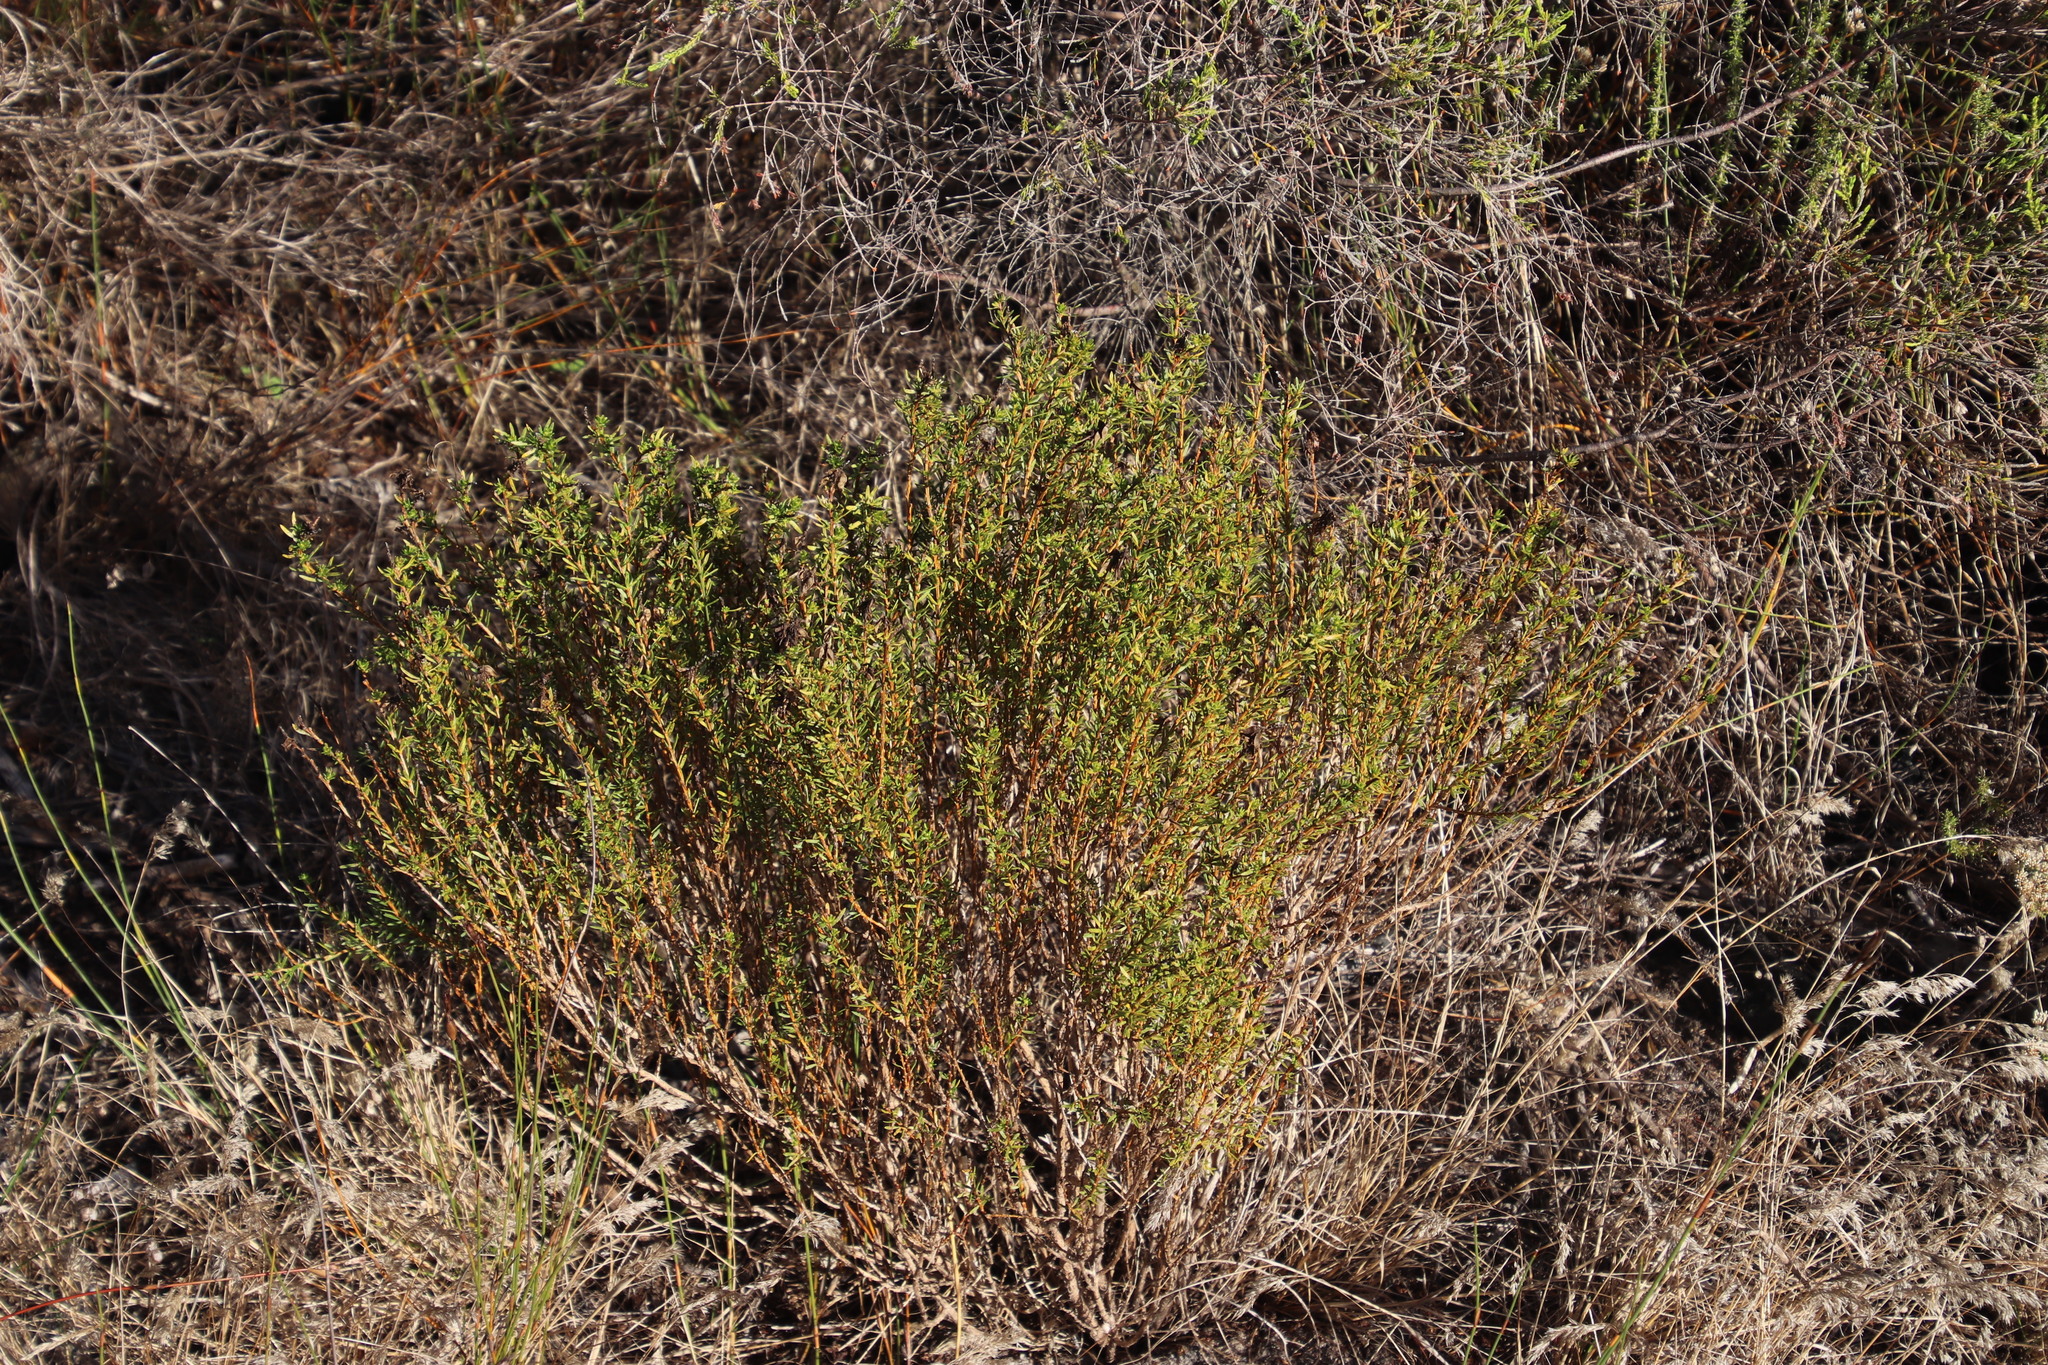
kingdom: Plantae
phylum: Tracheophyta
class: Magnoliopsida
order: Fabales
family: Fabaceae
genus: Aspalathus
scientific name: Aspalathus callosa
